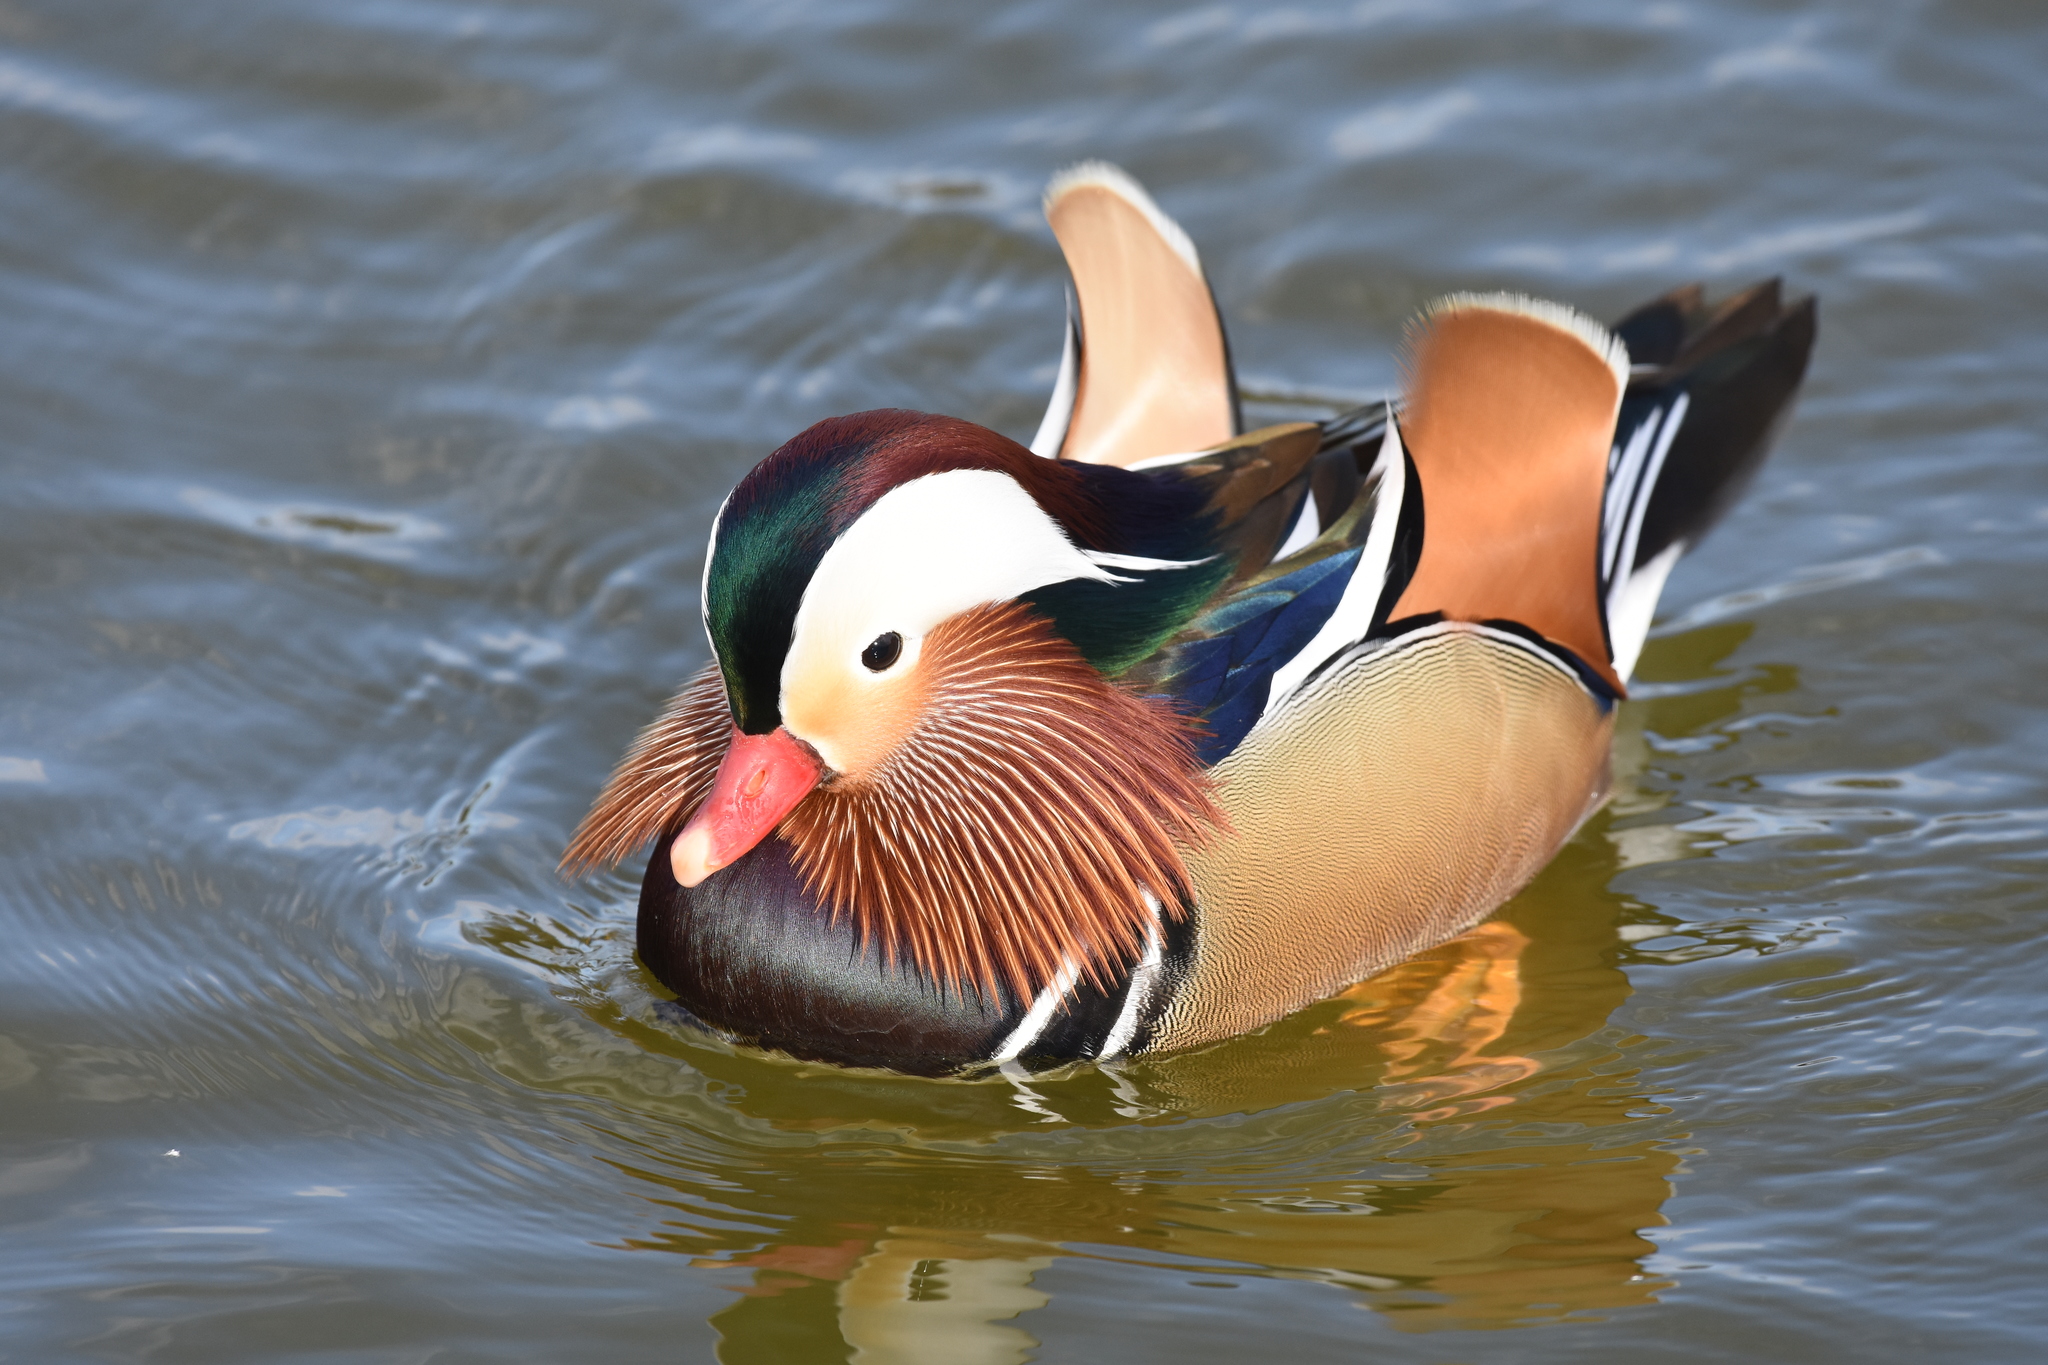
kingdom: Animalia
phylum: Chordata
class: Aves
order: Anseriformes
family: Anatidae
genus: Aix
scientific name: Aix galericulata
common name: Mandarin duck
